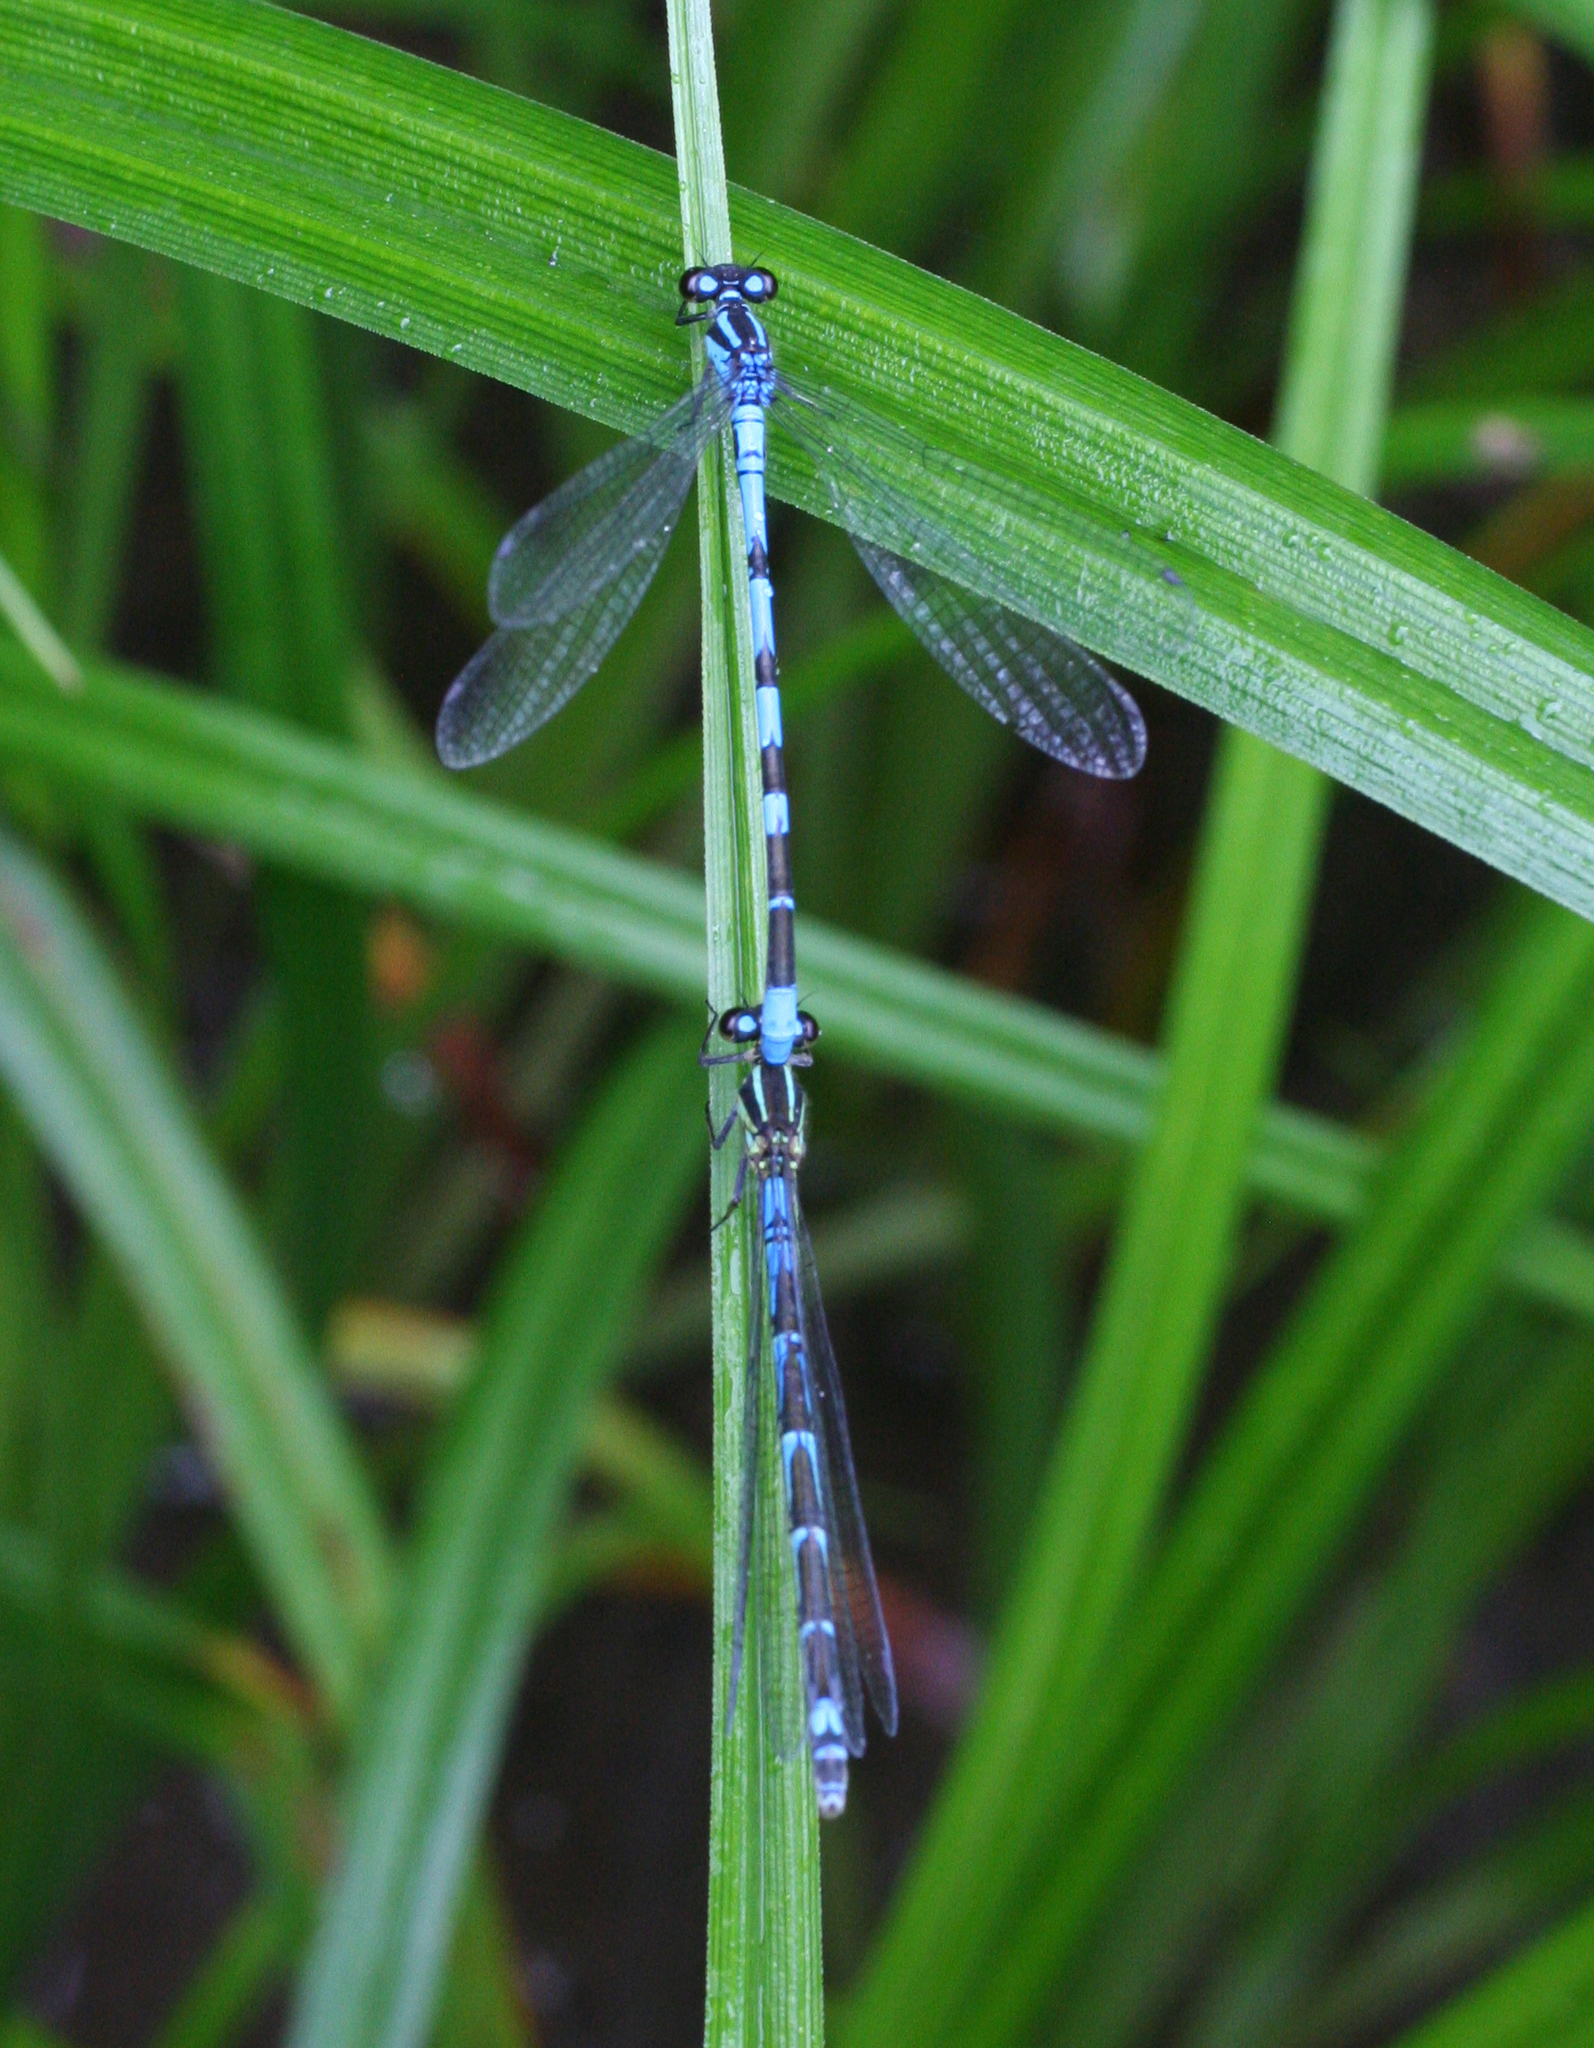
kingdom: Animalia
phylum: Arthropoda
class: Insecta
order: Odonata
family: Coenagrionidae
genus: Coenagrion
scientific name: Coenagrion hylas
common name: Frey's damselfly
